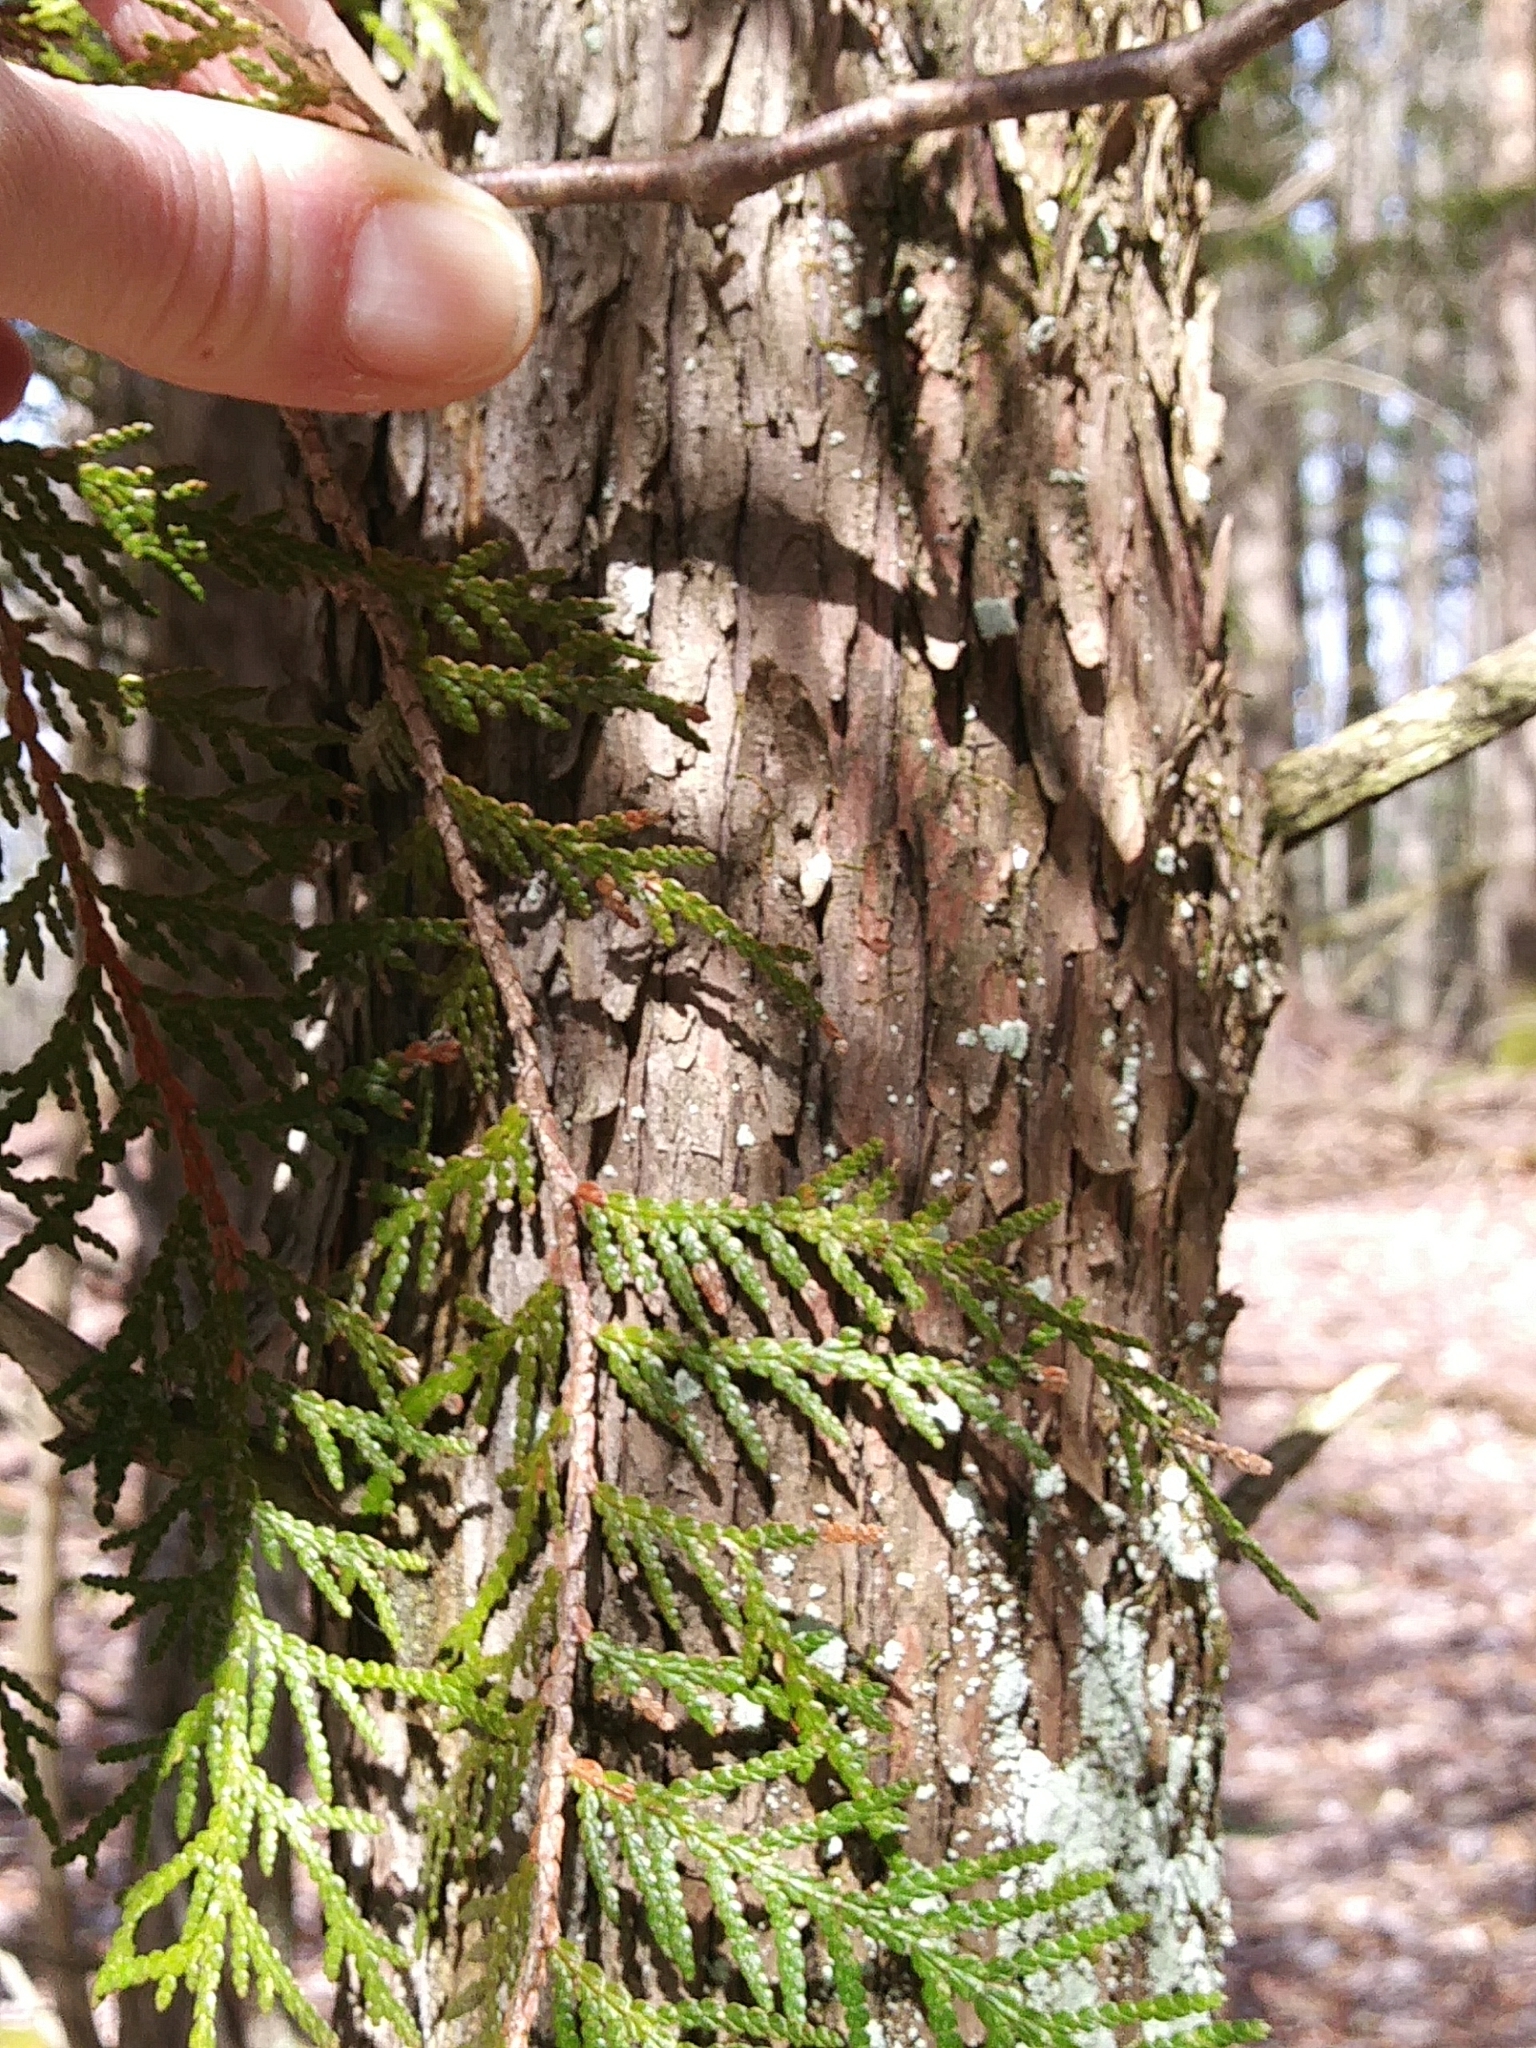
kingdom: Plantae
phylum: Tracheophyta
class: Pinopsida
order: Pinales
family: Cupressaceae
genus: Thuja
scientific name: Thuja occidentalis
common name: Northern white-cedar
